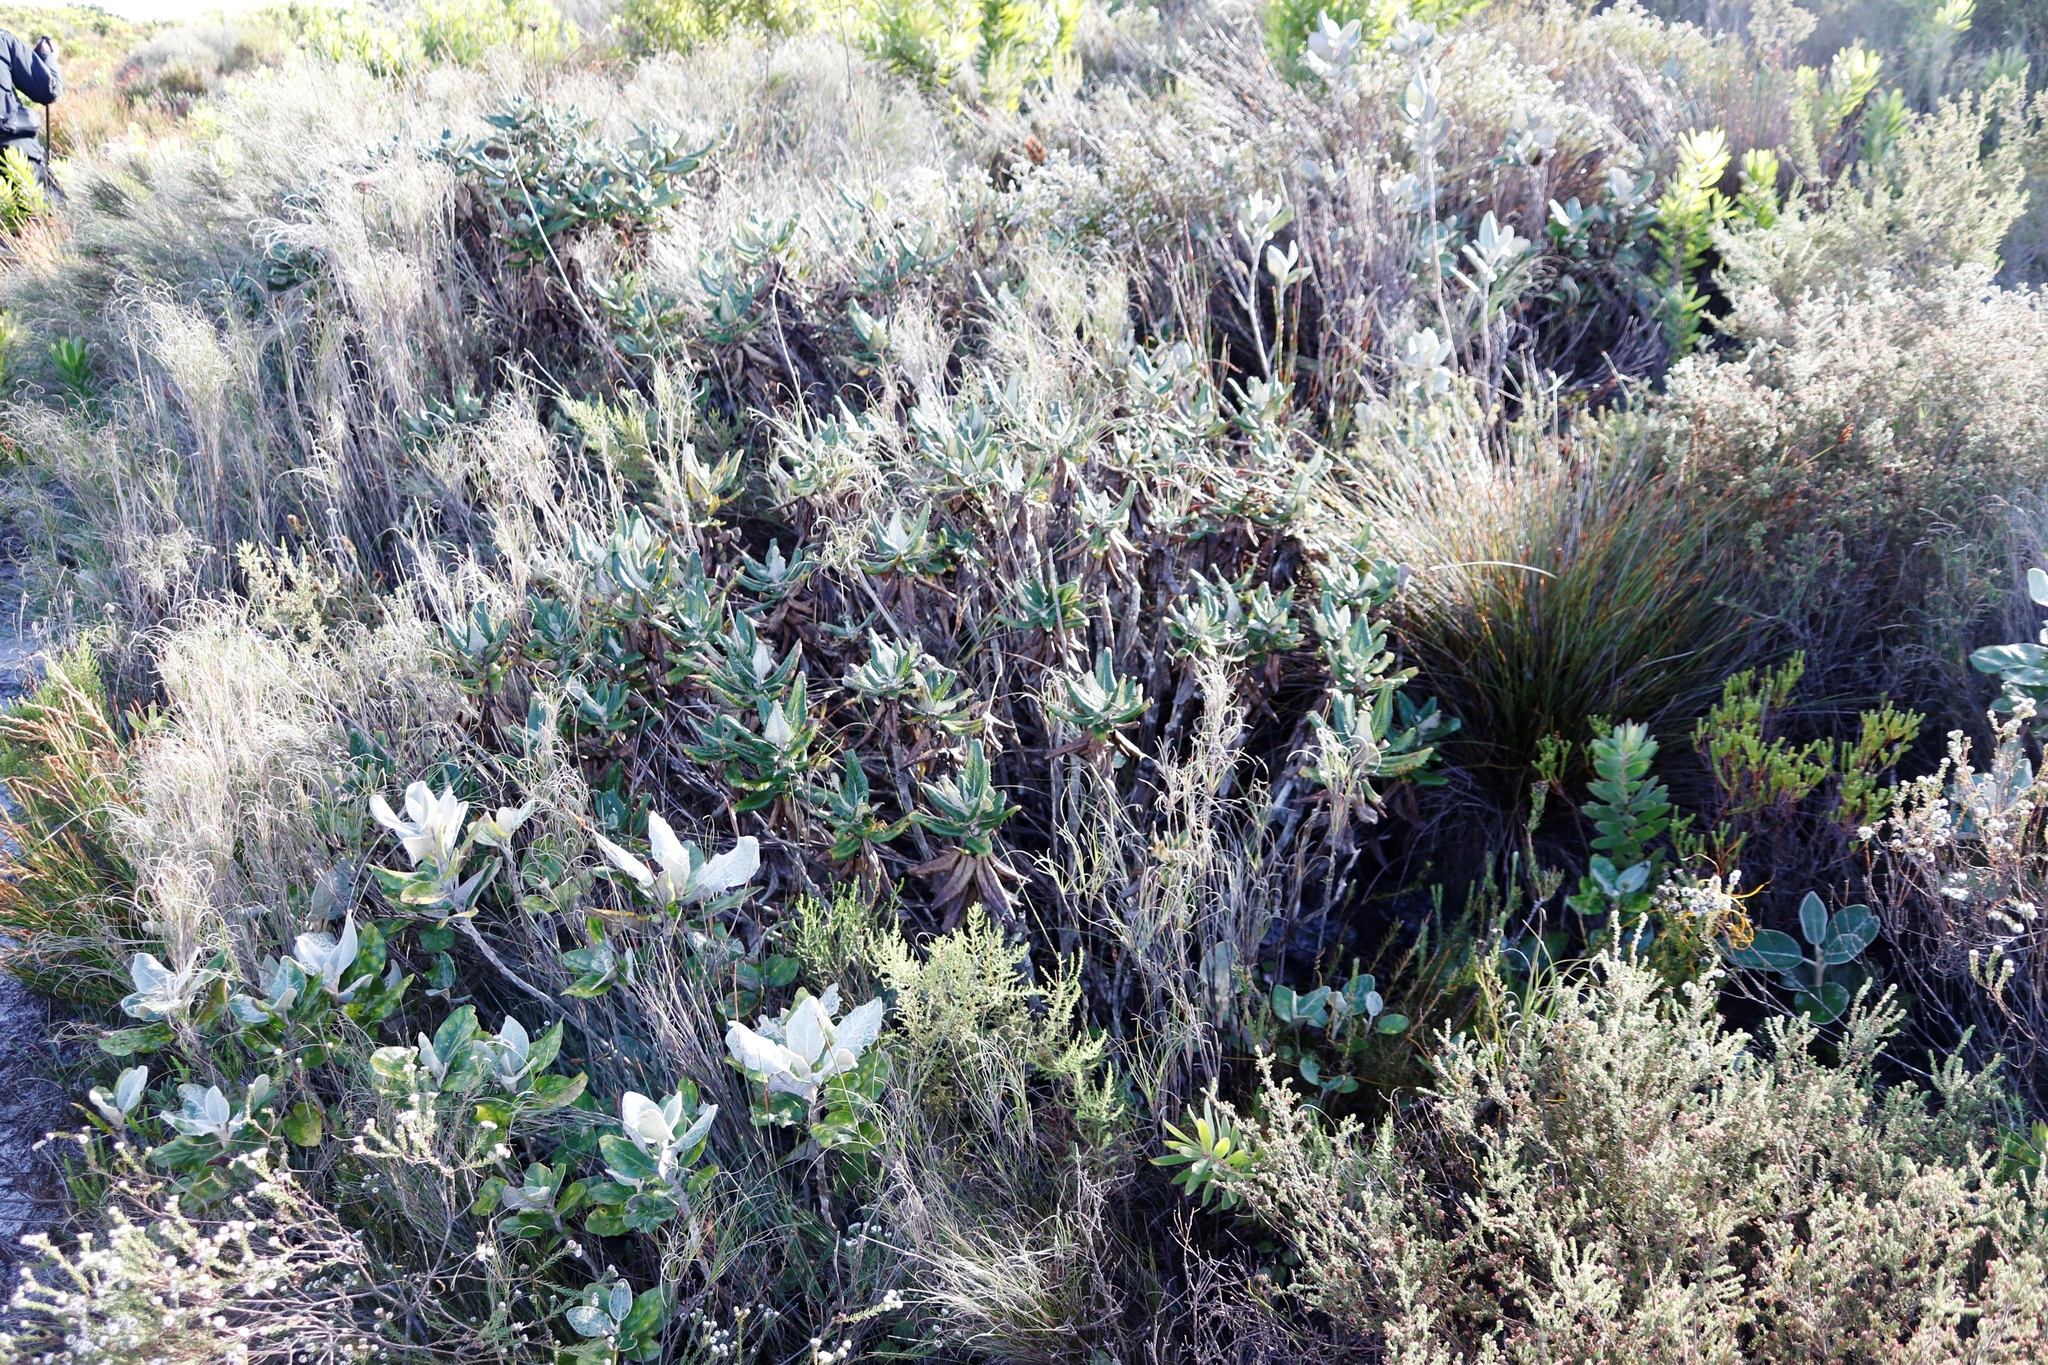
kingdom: Plantae
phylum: Tracheophyta
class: Magnoliopsida
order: Asterales
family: Asteraceae
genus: Capelio
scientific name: Capelio tabularis
